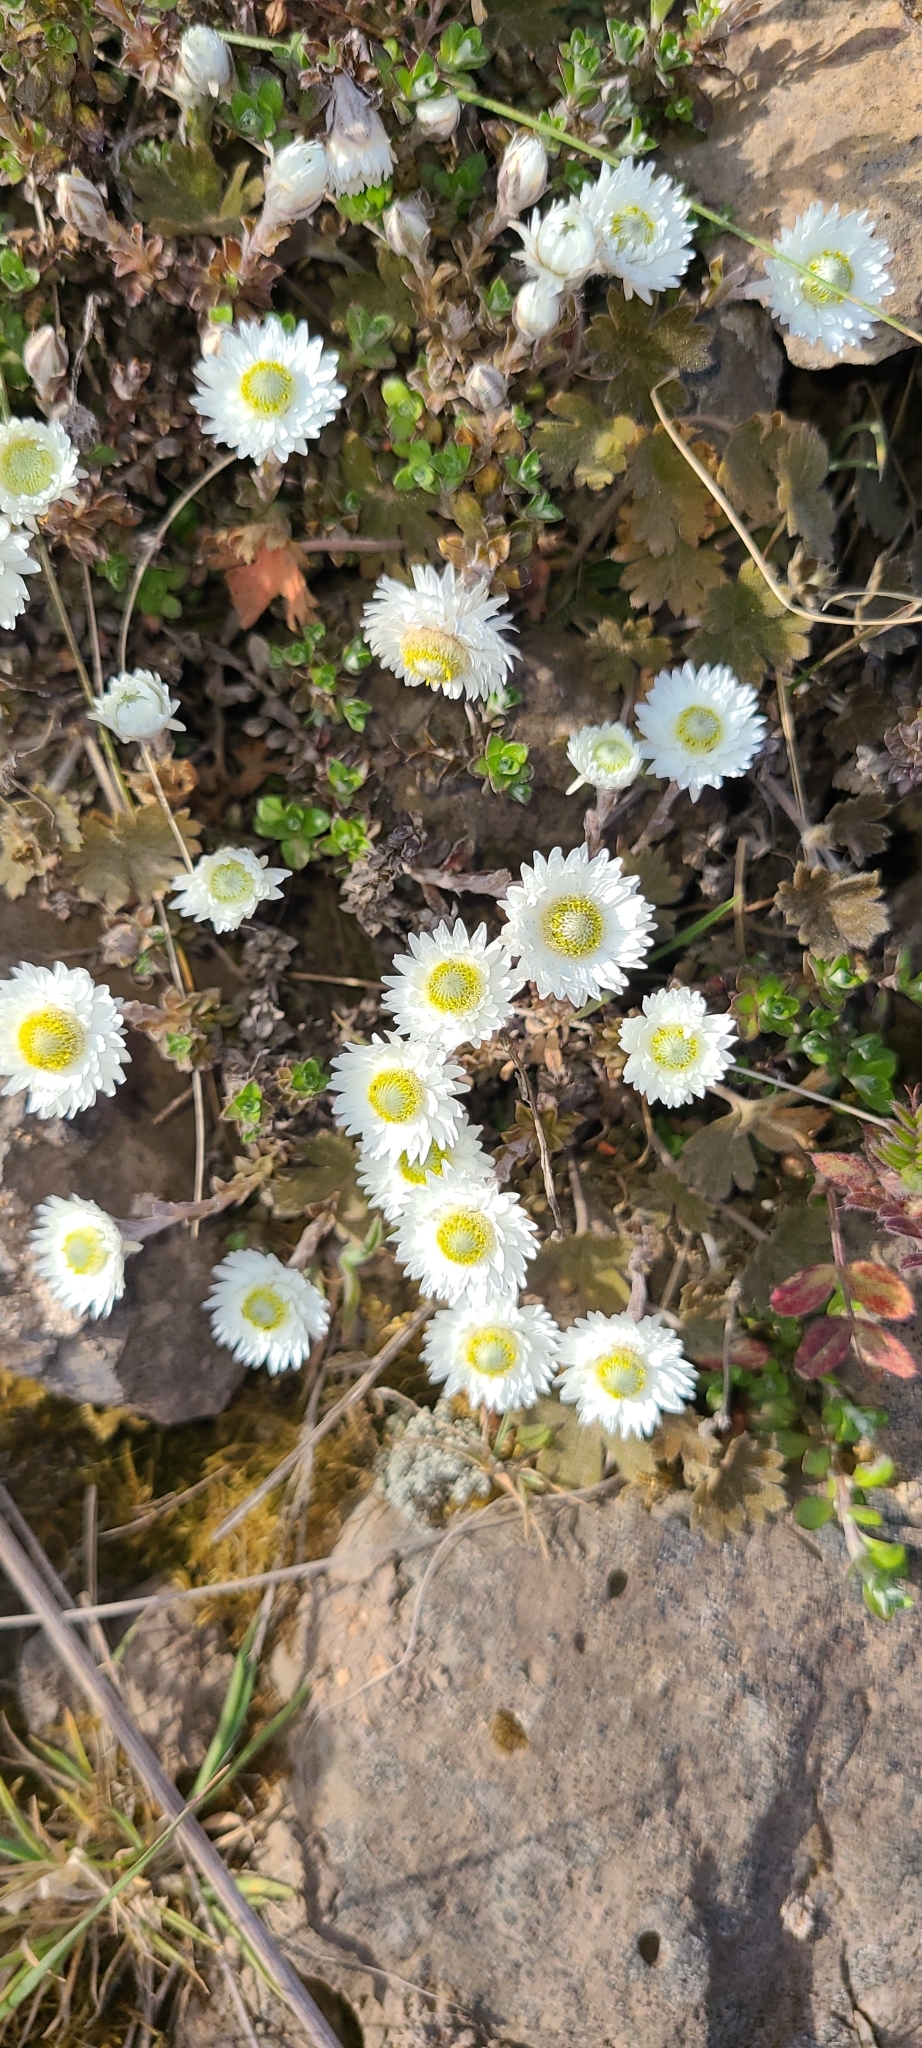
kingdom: Plantae
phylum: Tracheophyta
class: Magnoliopsida
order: Asterales
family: Asteraceae
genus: Anaphalioides
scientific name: Anaphalioides bellidioides
